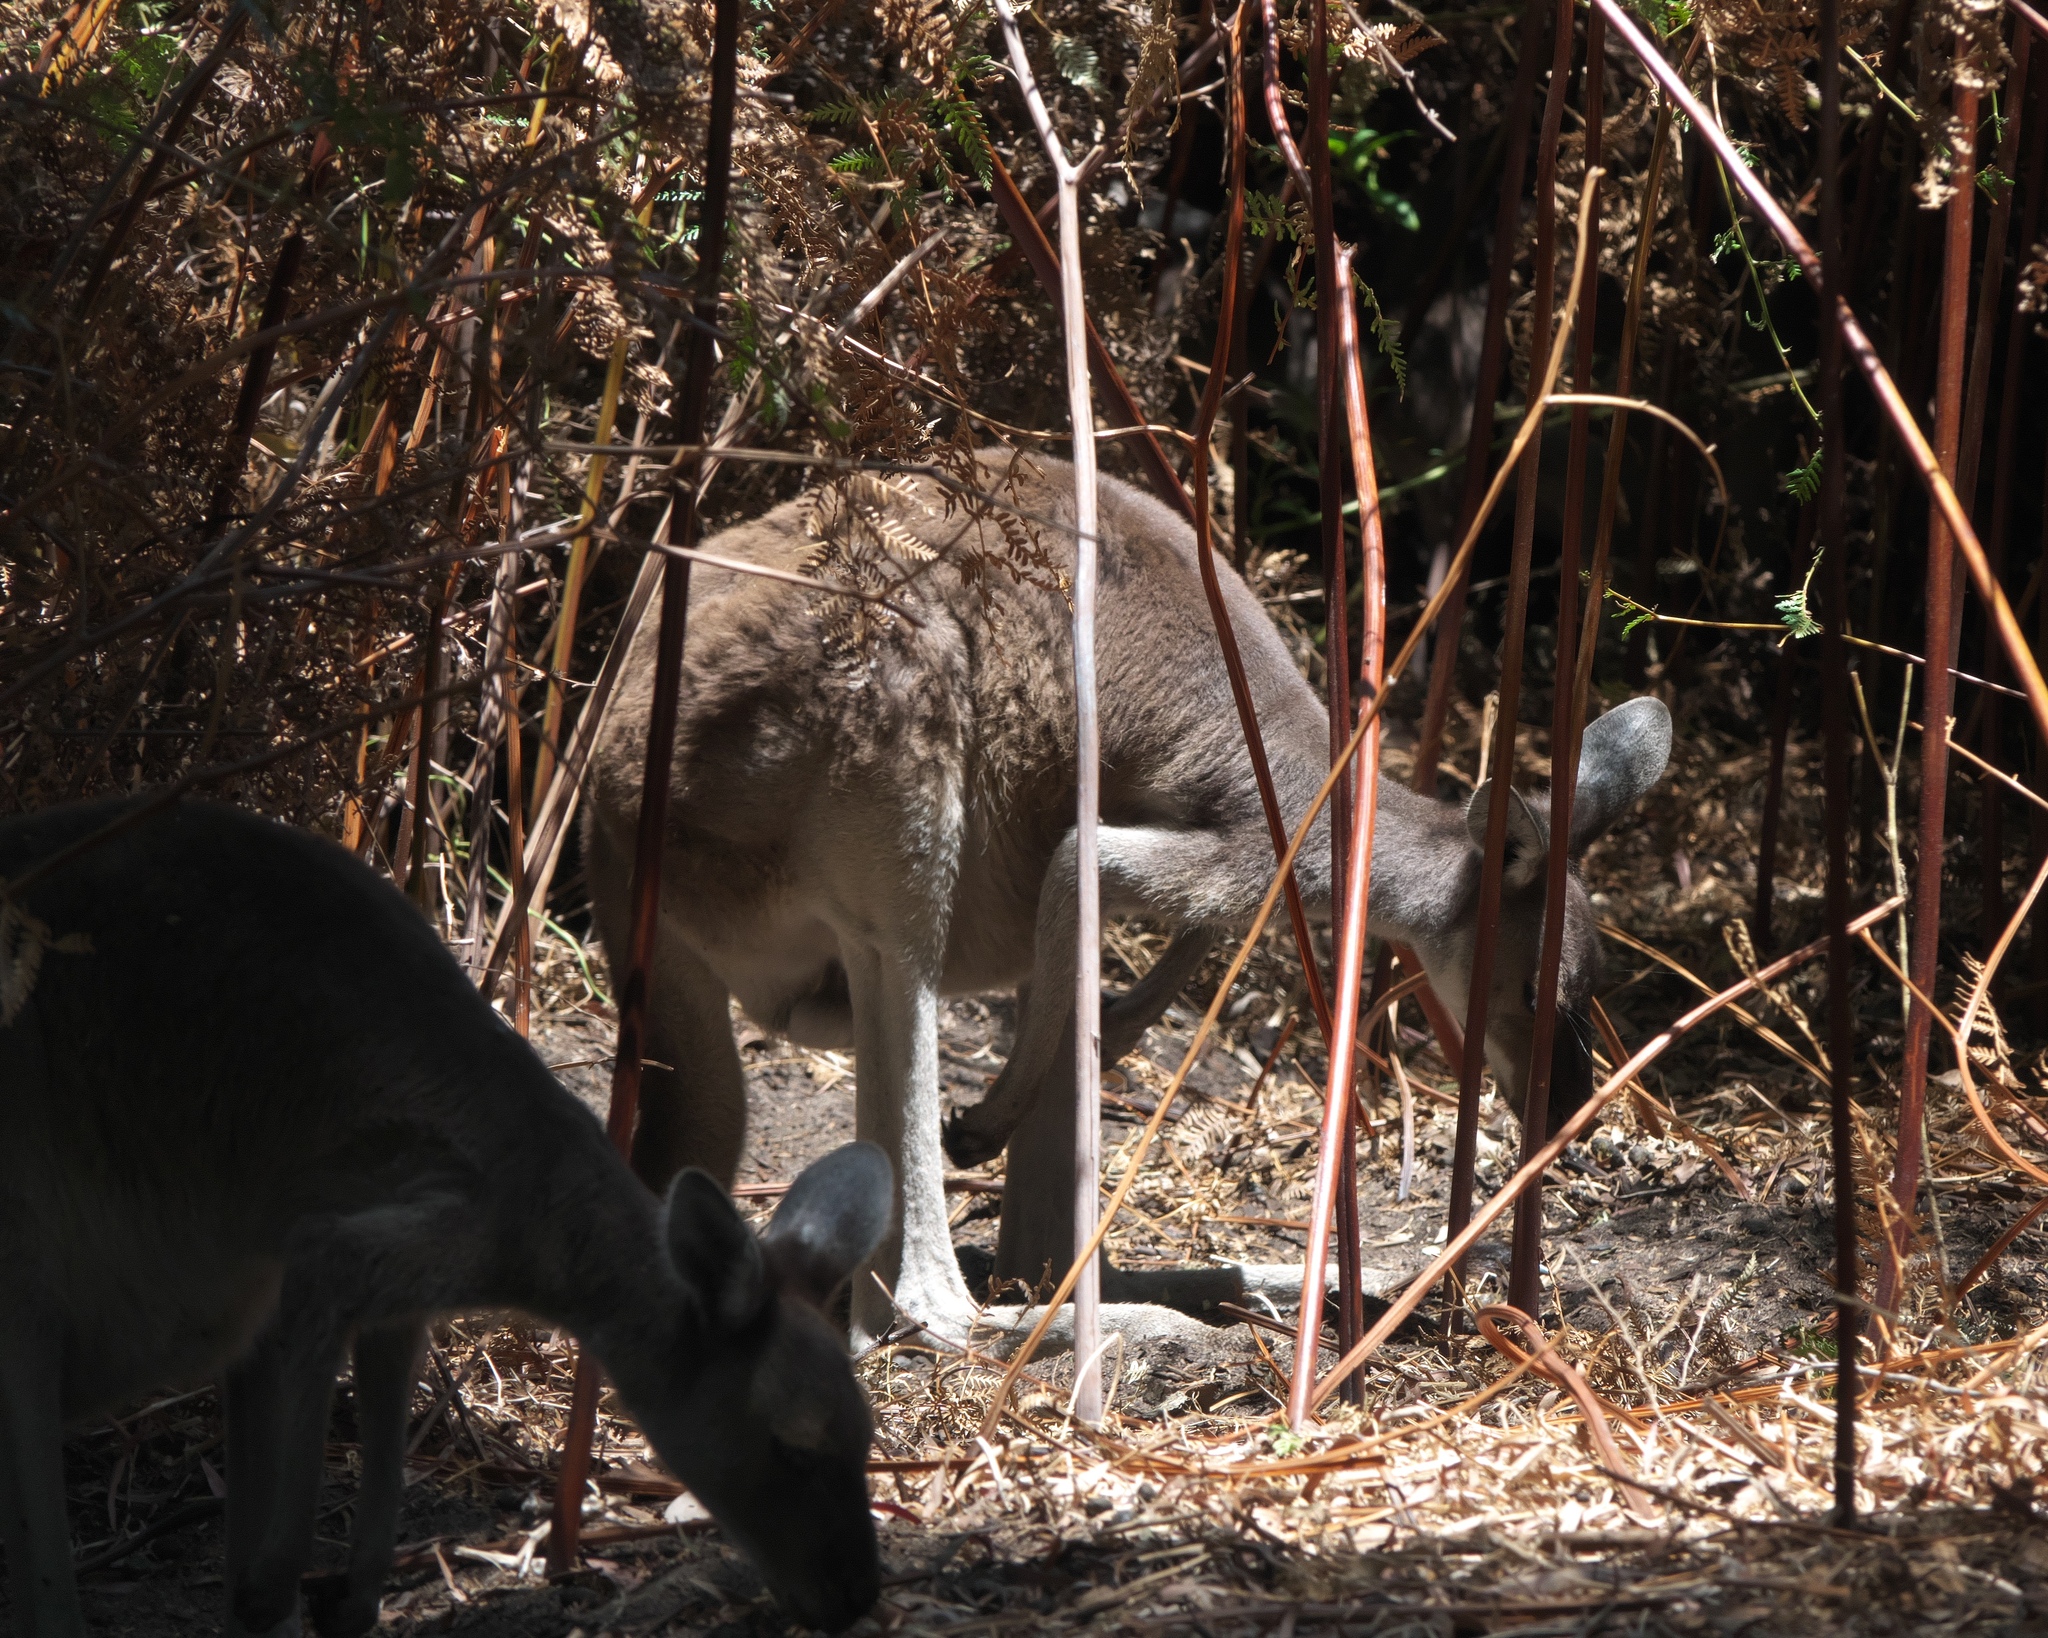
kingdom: Animalia
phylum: Chordata
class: Mammalia
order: Diprotodontia
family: Macropodidae
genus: Macropus
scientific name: Macropus fuliginosus
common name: Western grey kangaroo
